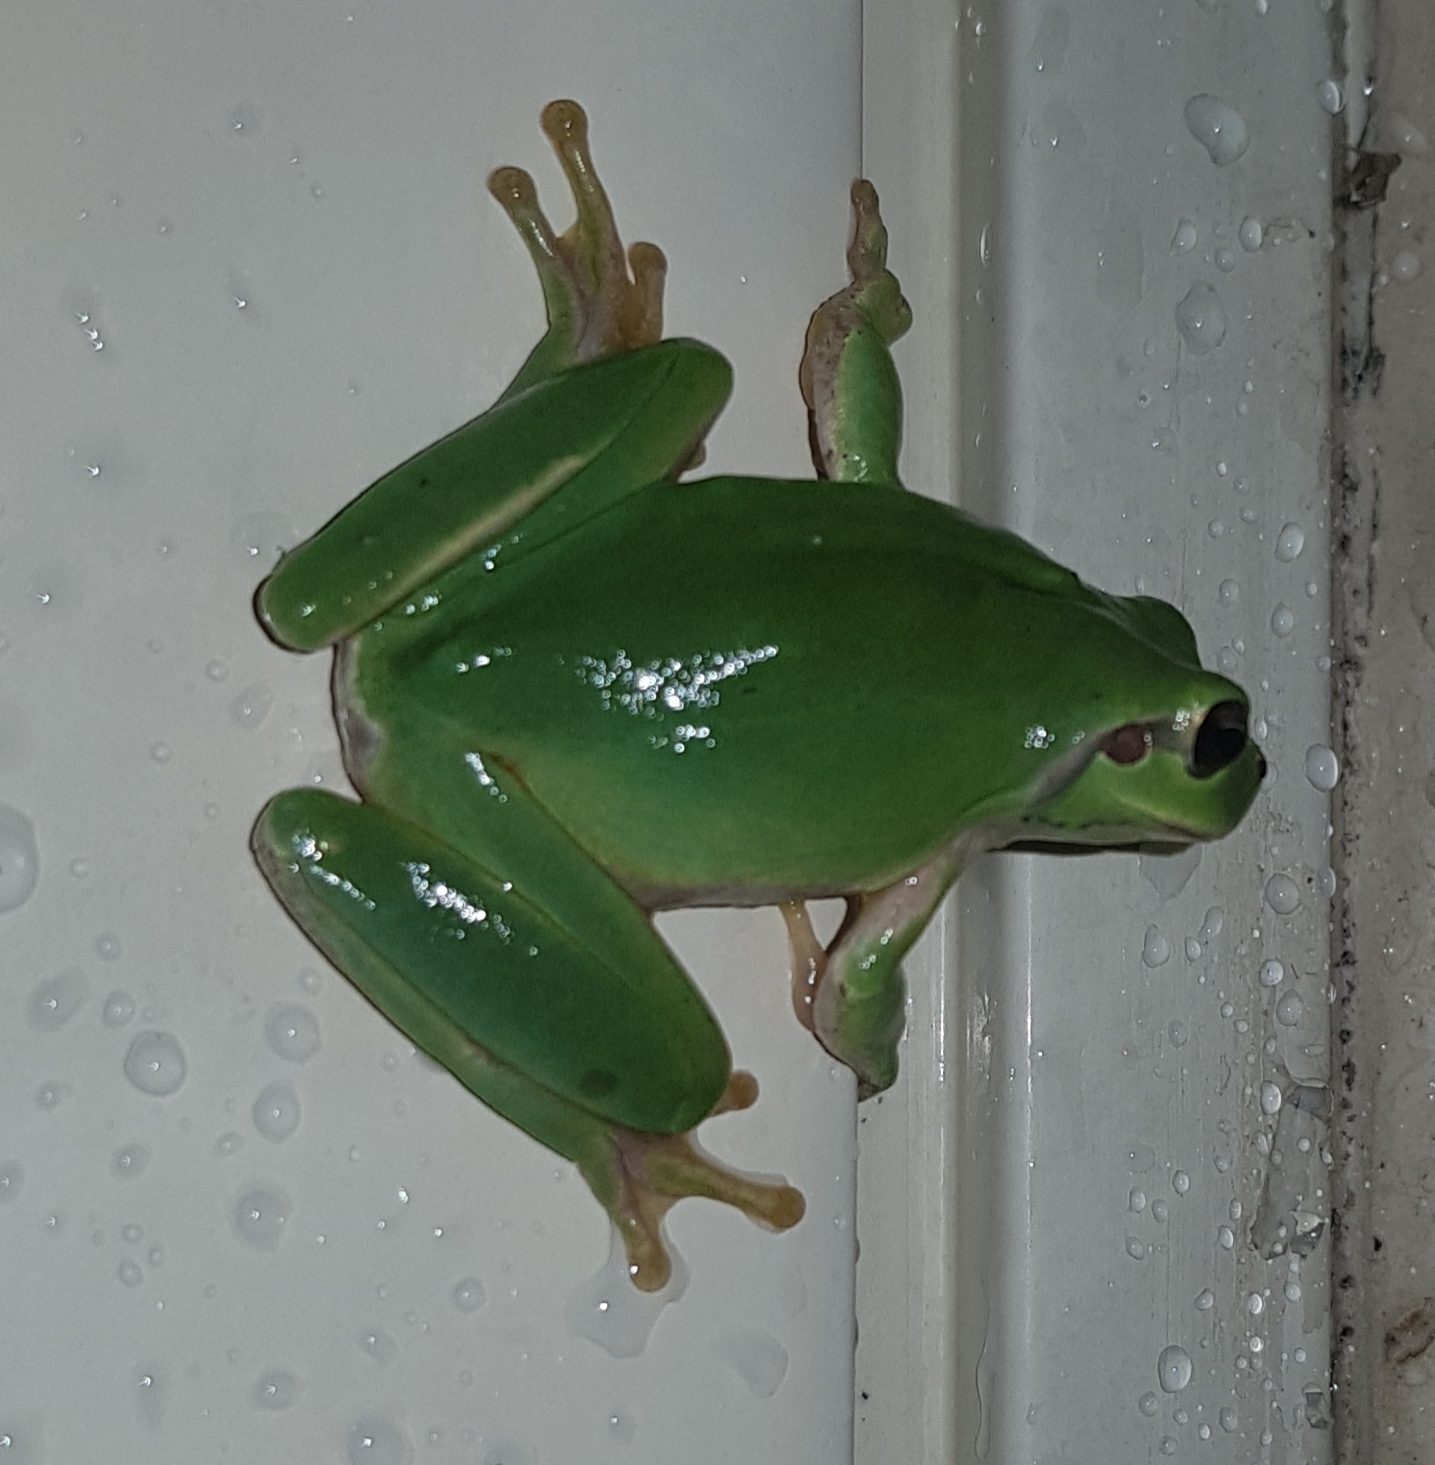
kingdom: Animalia
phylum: Chordata
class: Amphibia
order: Anura
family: Hylidae
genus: Hyla
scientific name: Hyla meridionalis
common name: Stripeless tree frog
